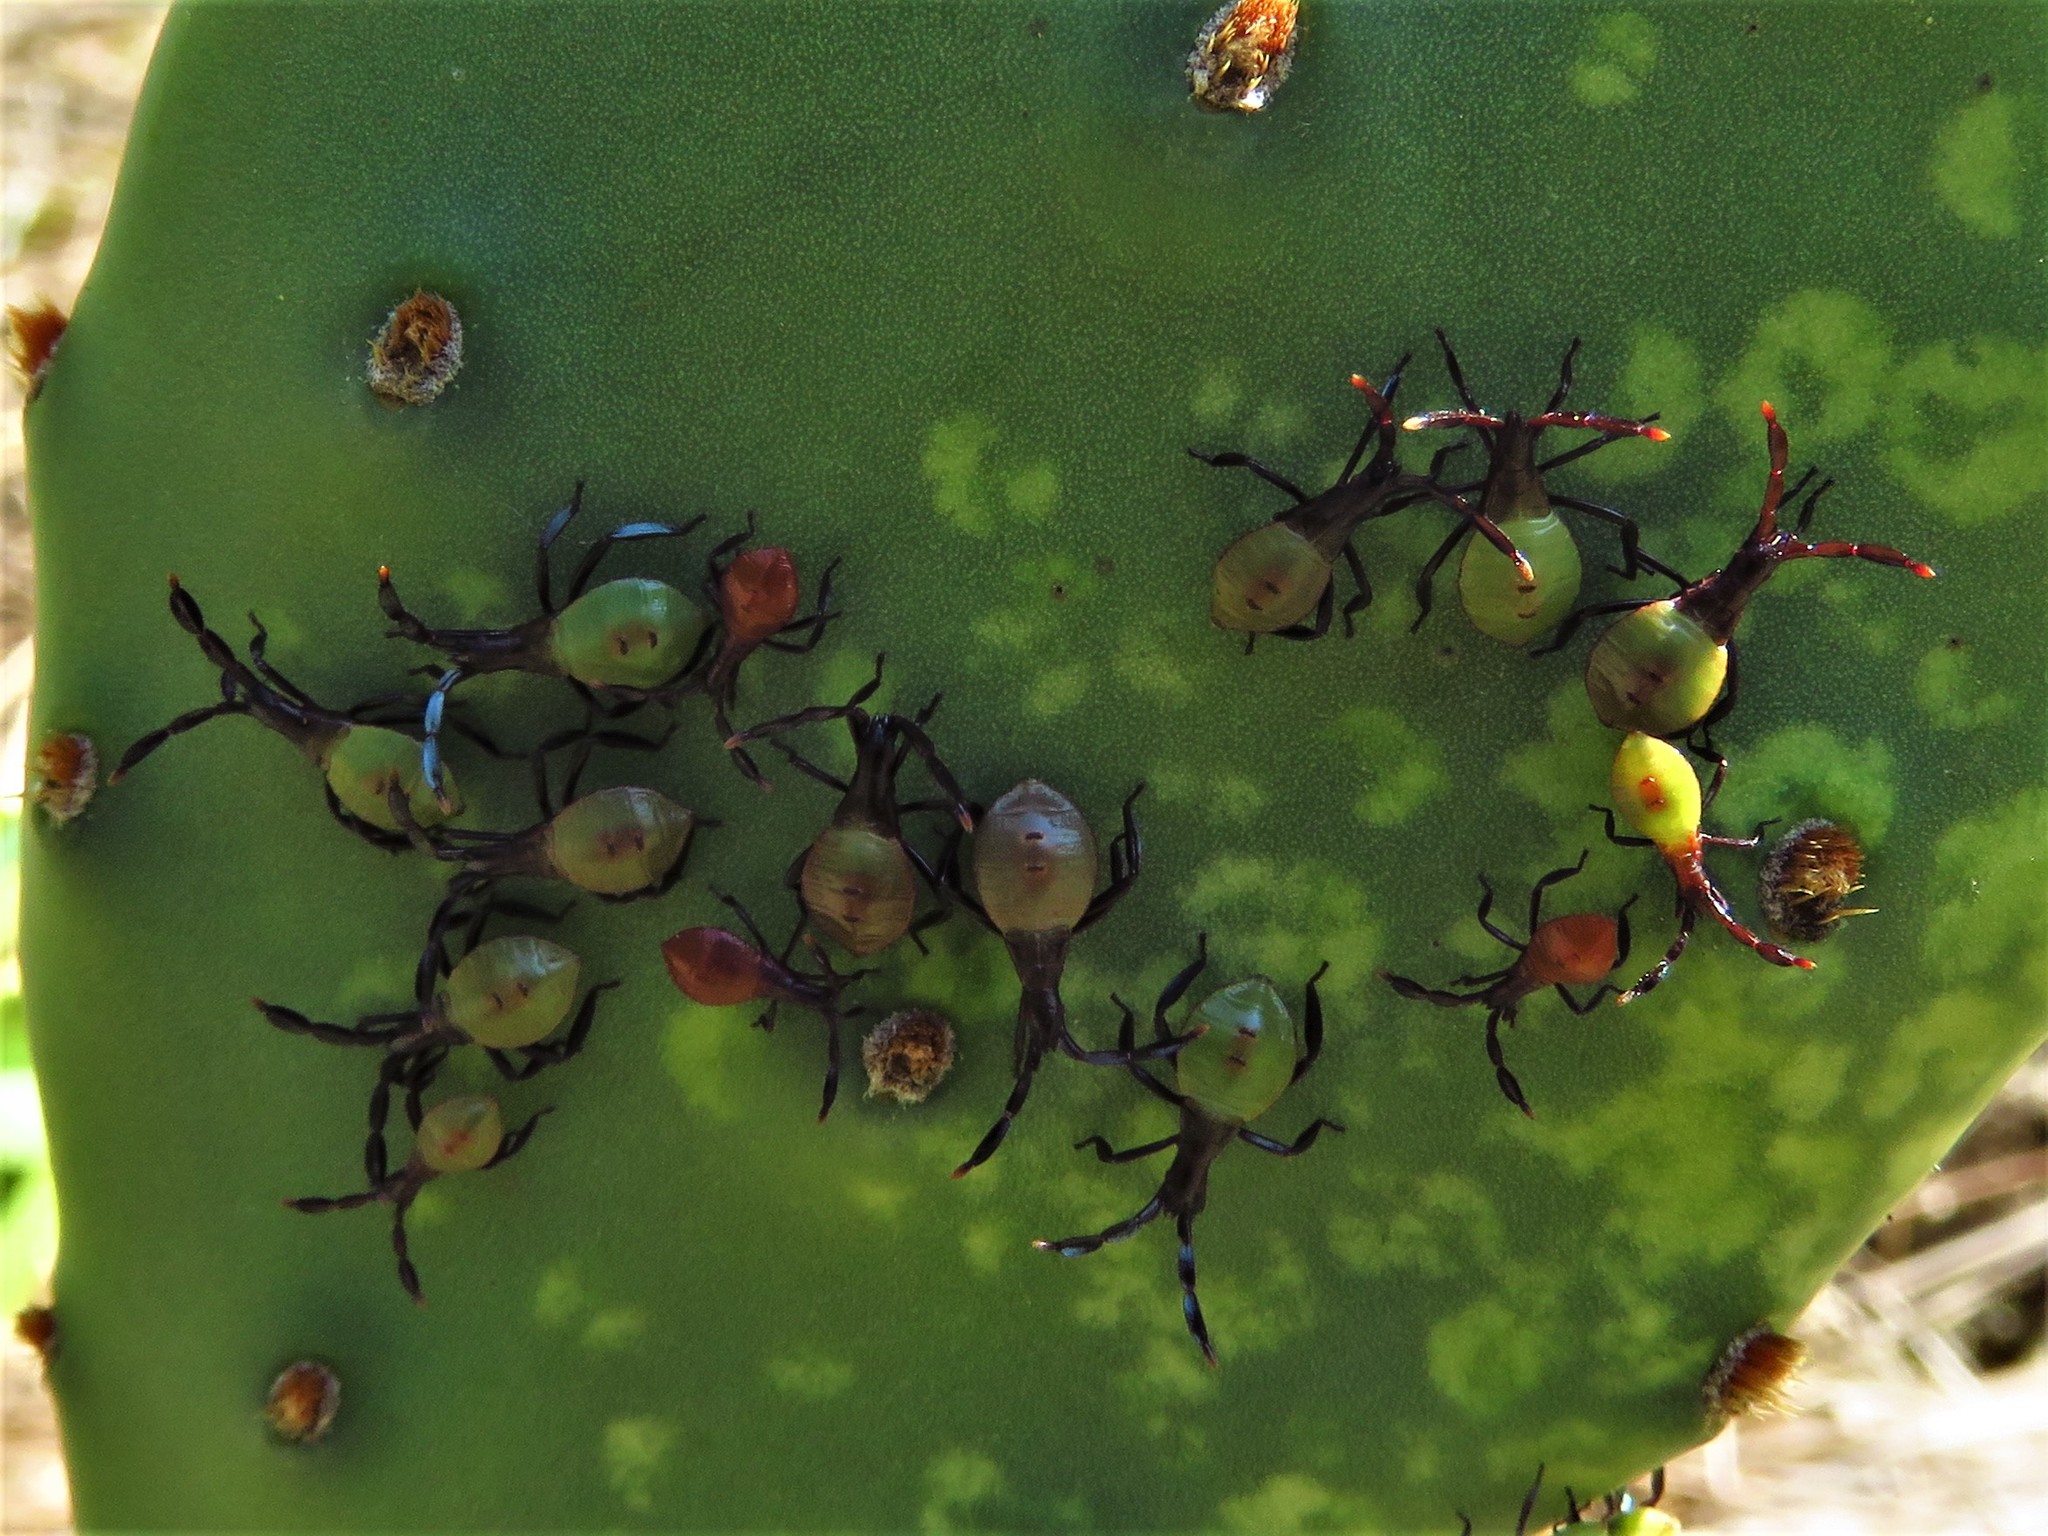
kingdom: Animalia
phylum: Arthropoda
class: Insecta
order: Hemiptera
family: Coreidae
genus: Chelinidea
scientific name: Chelinidea vittiger
